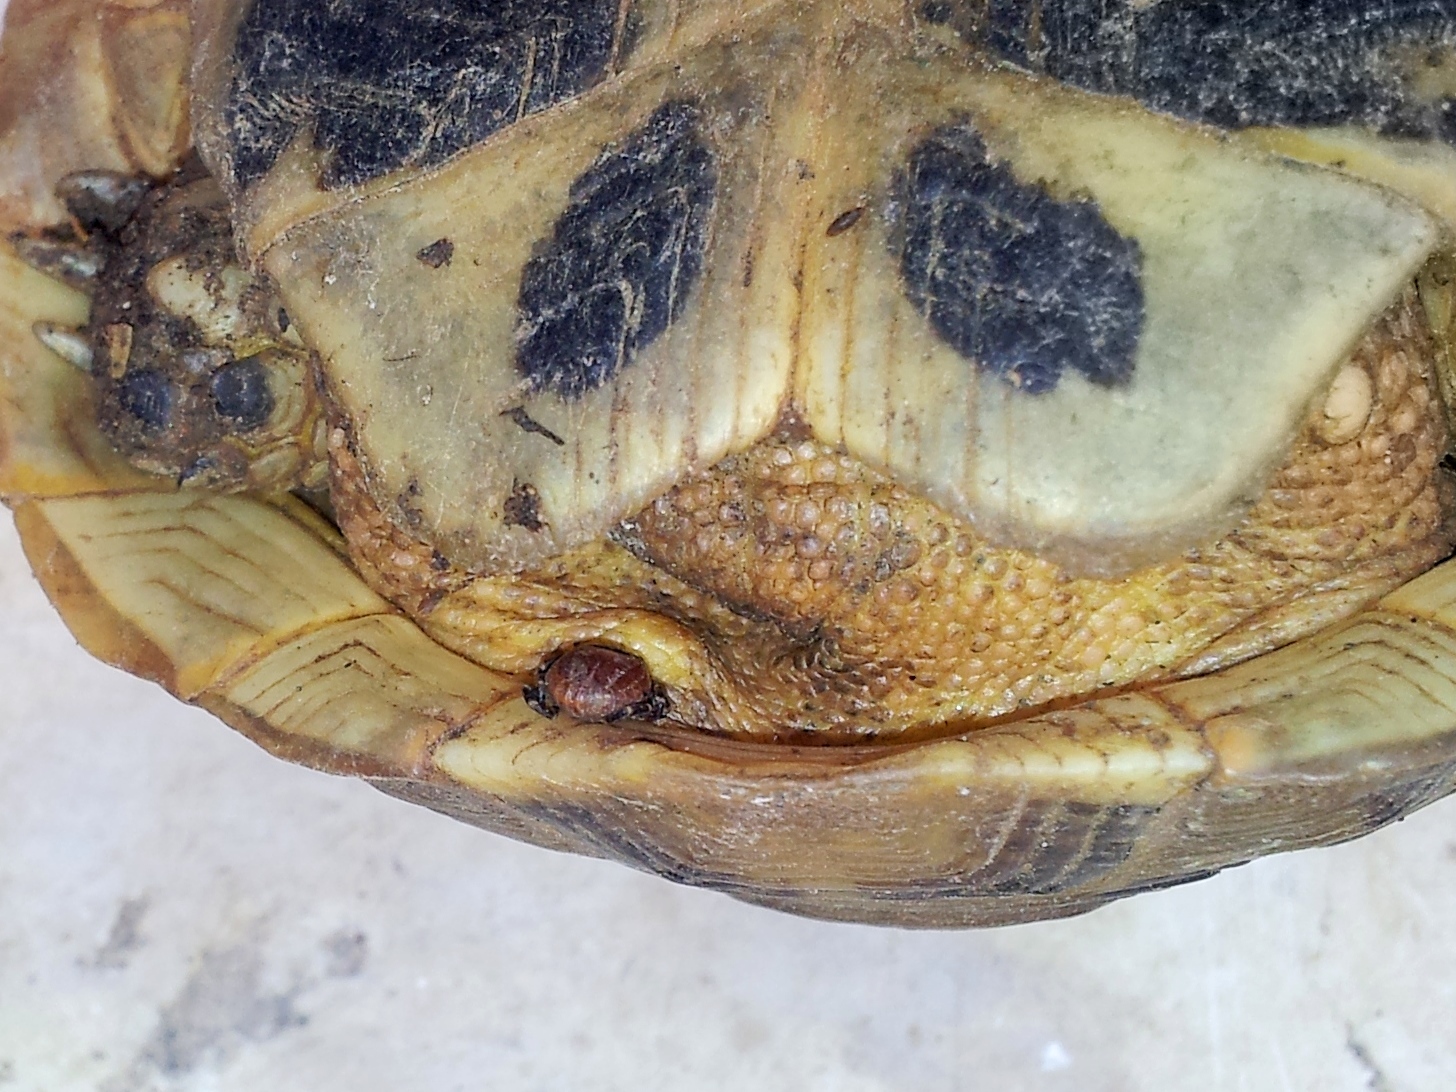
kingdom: Animalia
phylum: Arthropoda
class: Arachnida
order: Ixodida
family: Ixodidae
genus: Hyalomma
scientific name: Hyalomma aegyptium
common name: Tortoise tick
